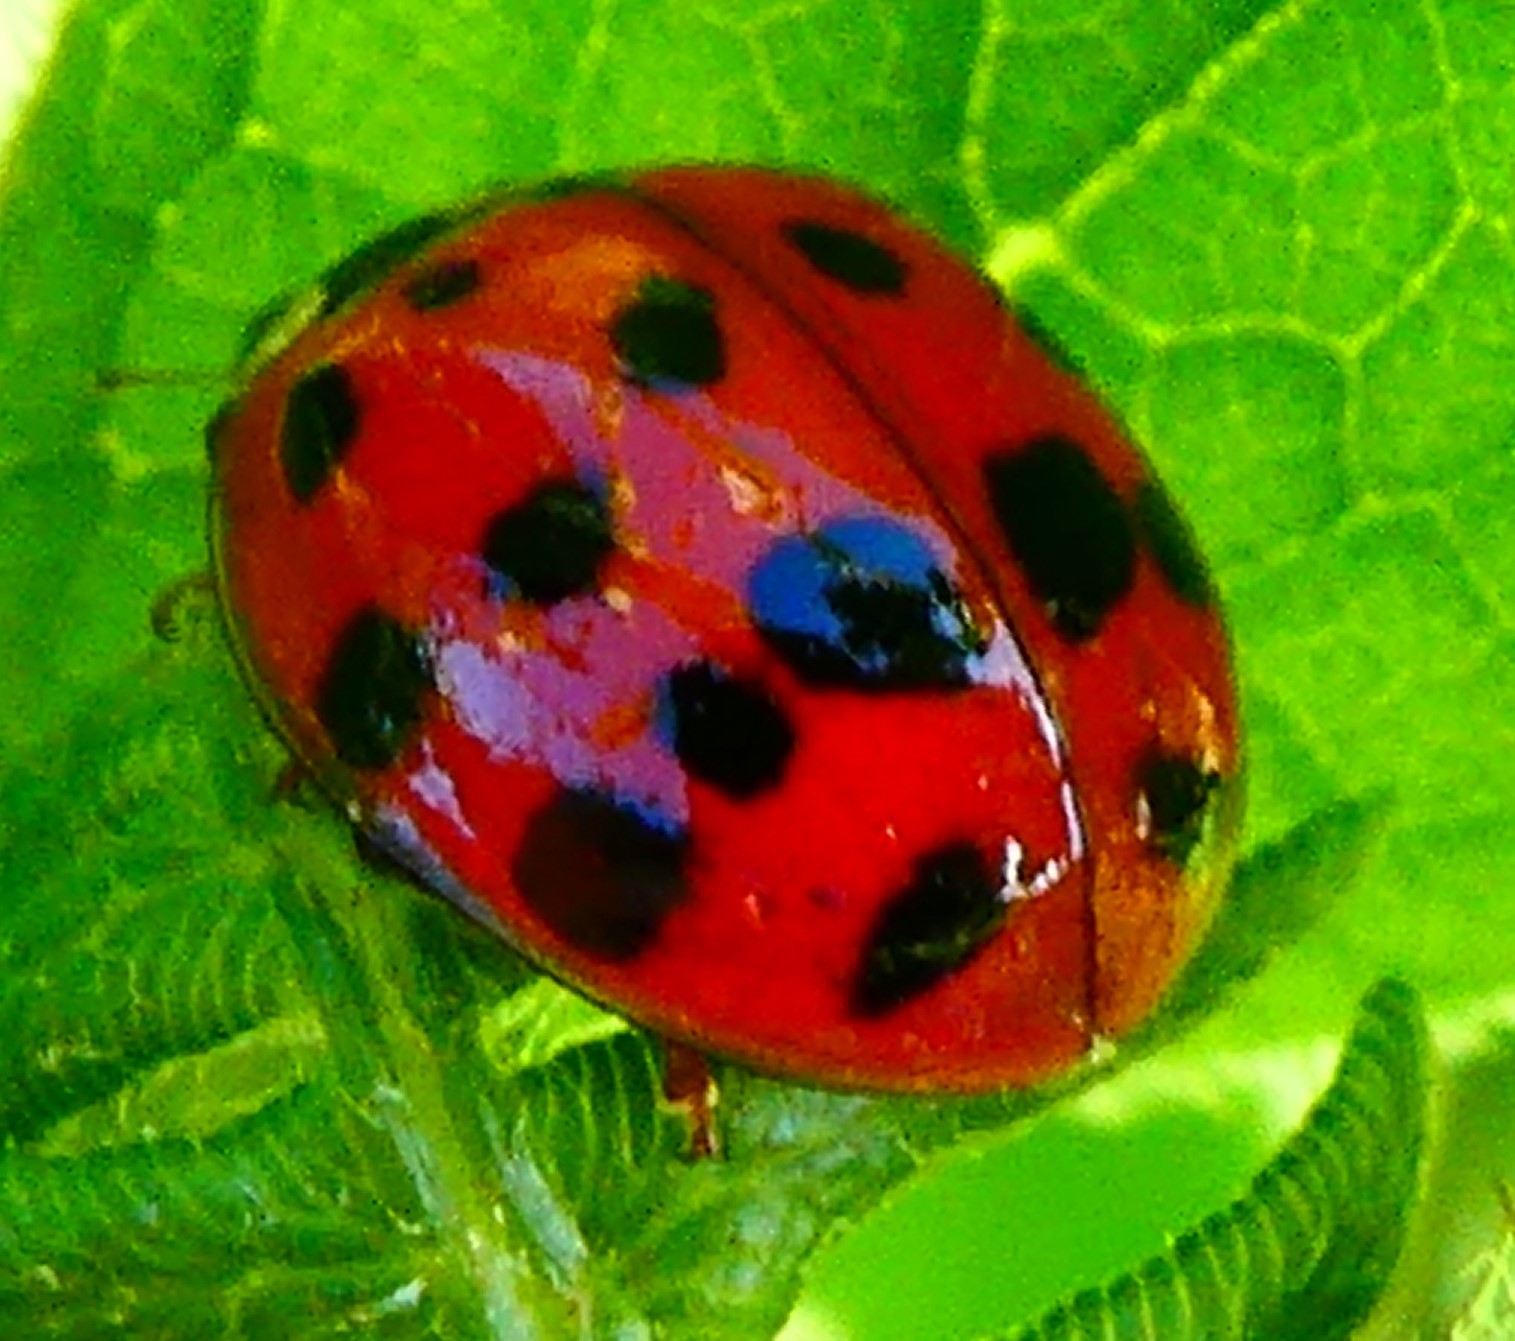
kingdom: Animalia
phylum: Arthropoda
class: Insecta
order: Coleoptera
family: Coccinellidae
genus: Harmonia
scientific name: Harmonia axyridis
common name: Harlequin ladybird
